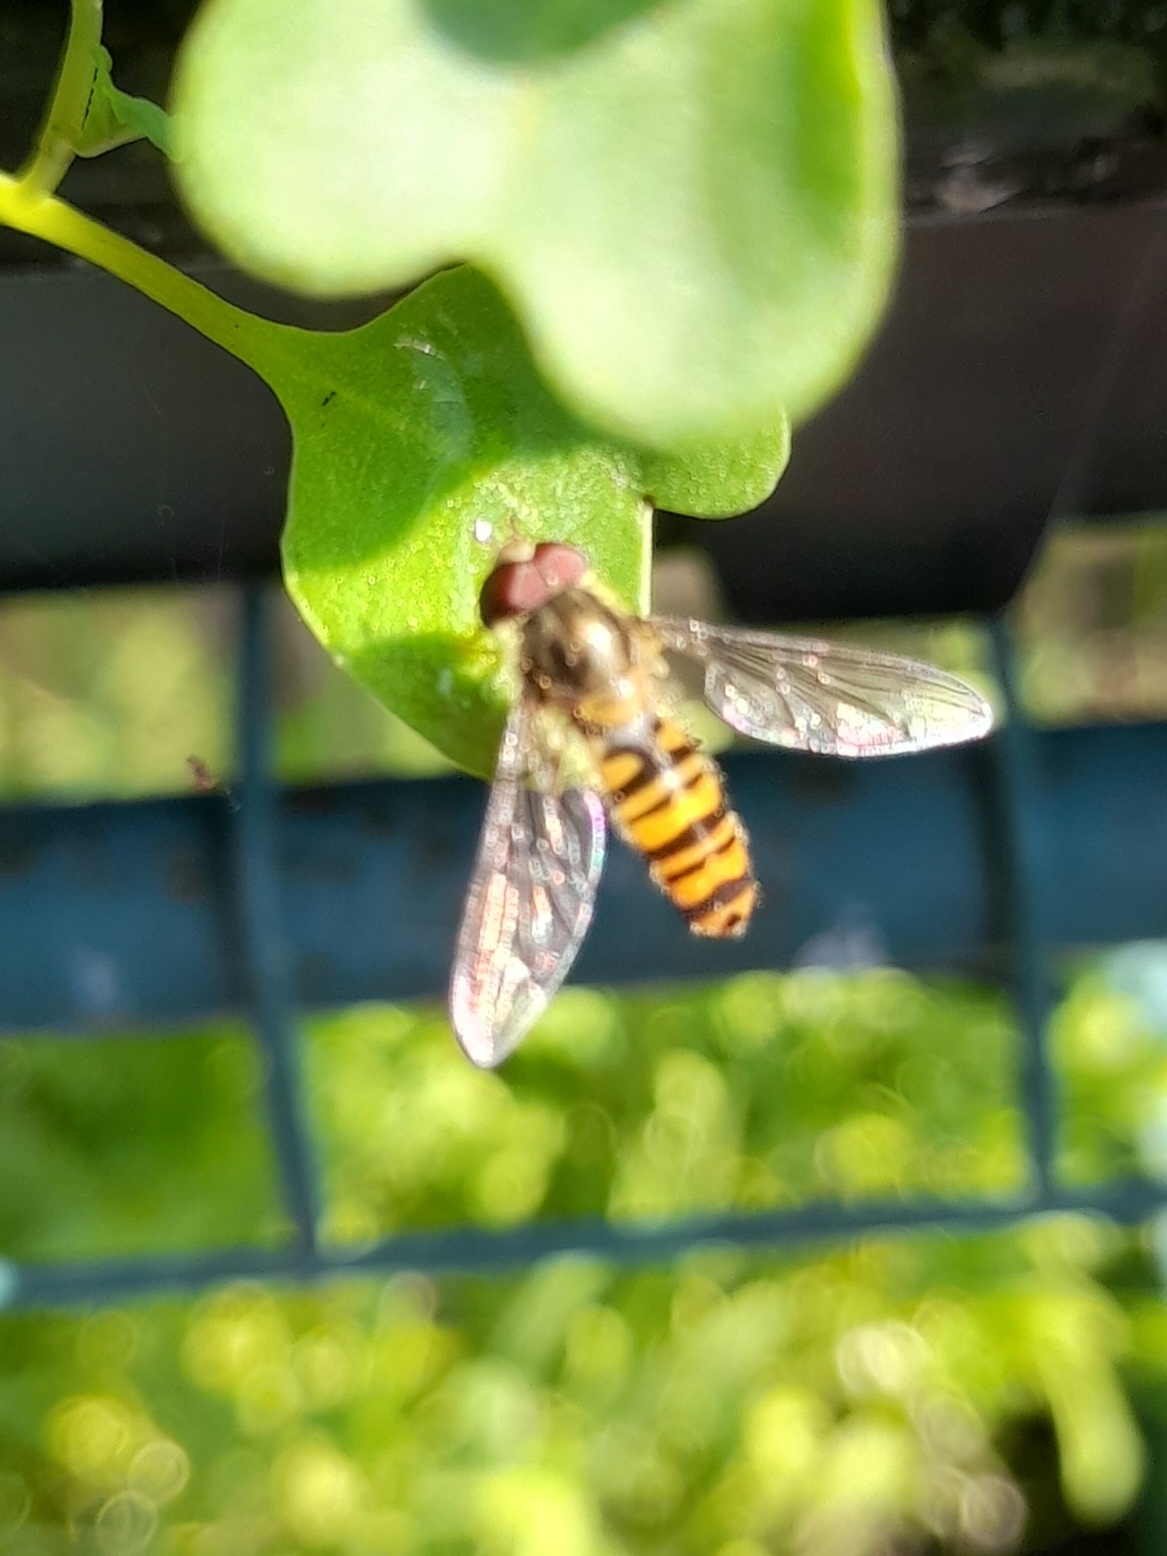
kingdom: Animalia
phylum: Arthropoda
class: Insecta
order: Diptera
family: Syrphidae
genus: Episyrphus
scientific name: Episyrphus balteatus
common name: Marmalade hoverfly
